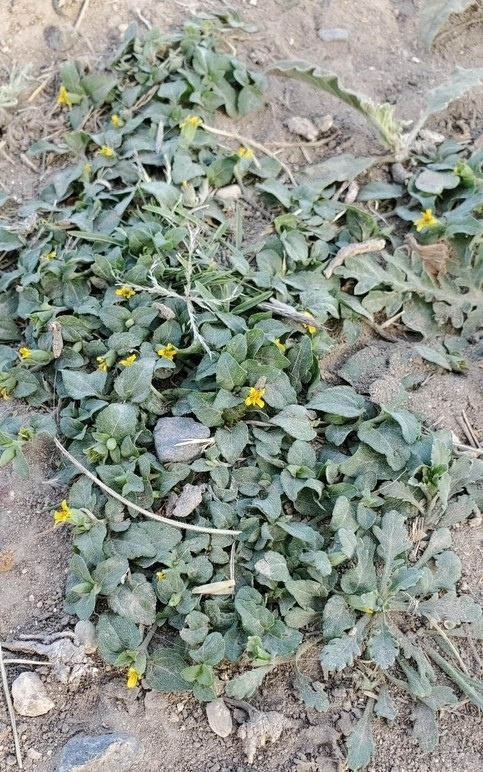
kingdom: Plantae
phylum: Tracheophyta
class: Magnoliopsida
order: Asterales
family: Asteraceae
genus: Calyptocarpus
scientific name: Calyptocarpus vialis
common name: Straggler daisy
